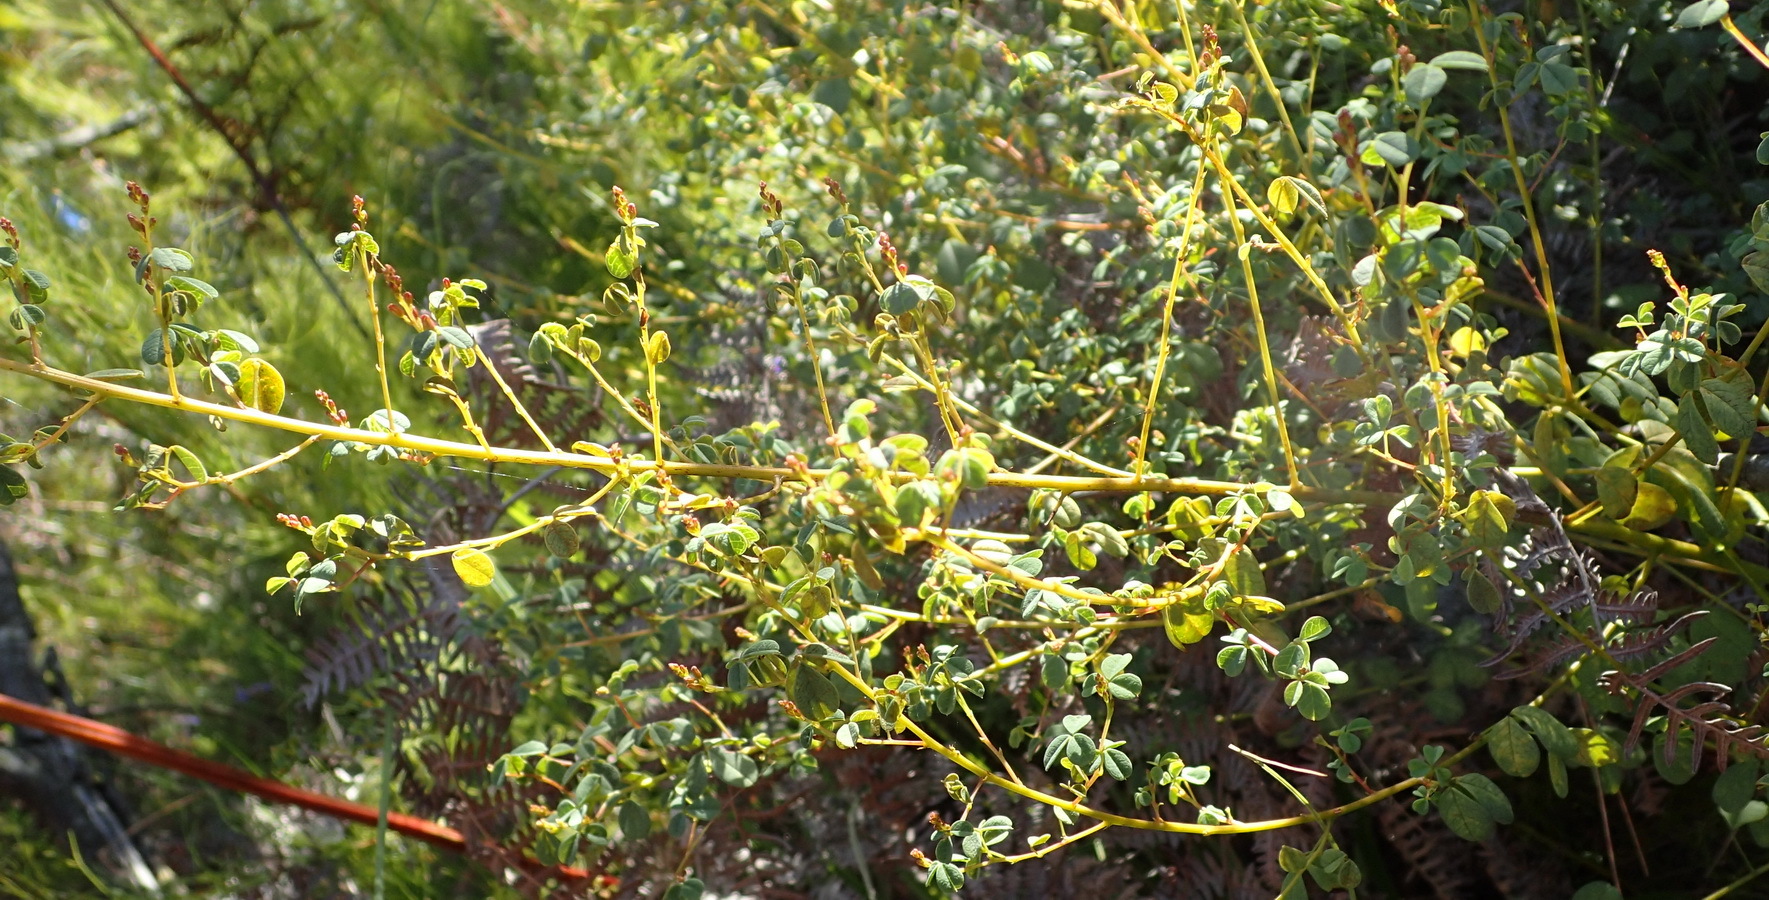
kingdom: Plantae
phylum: Tracheophyta
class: Magnoliopsida
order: Fabales
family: Fabaceae
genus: Hypocalyptus
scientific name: Hypocalyptus oxalidifolius
